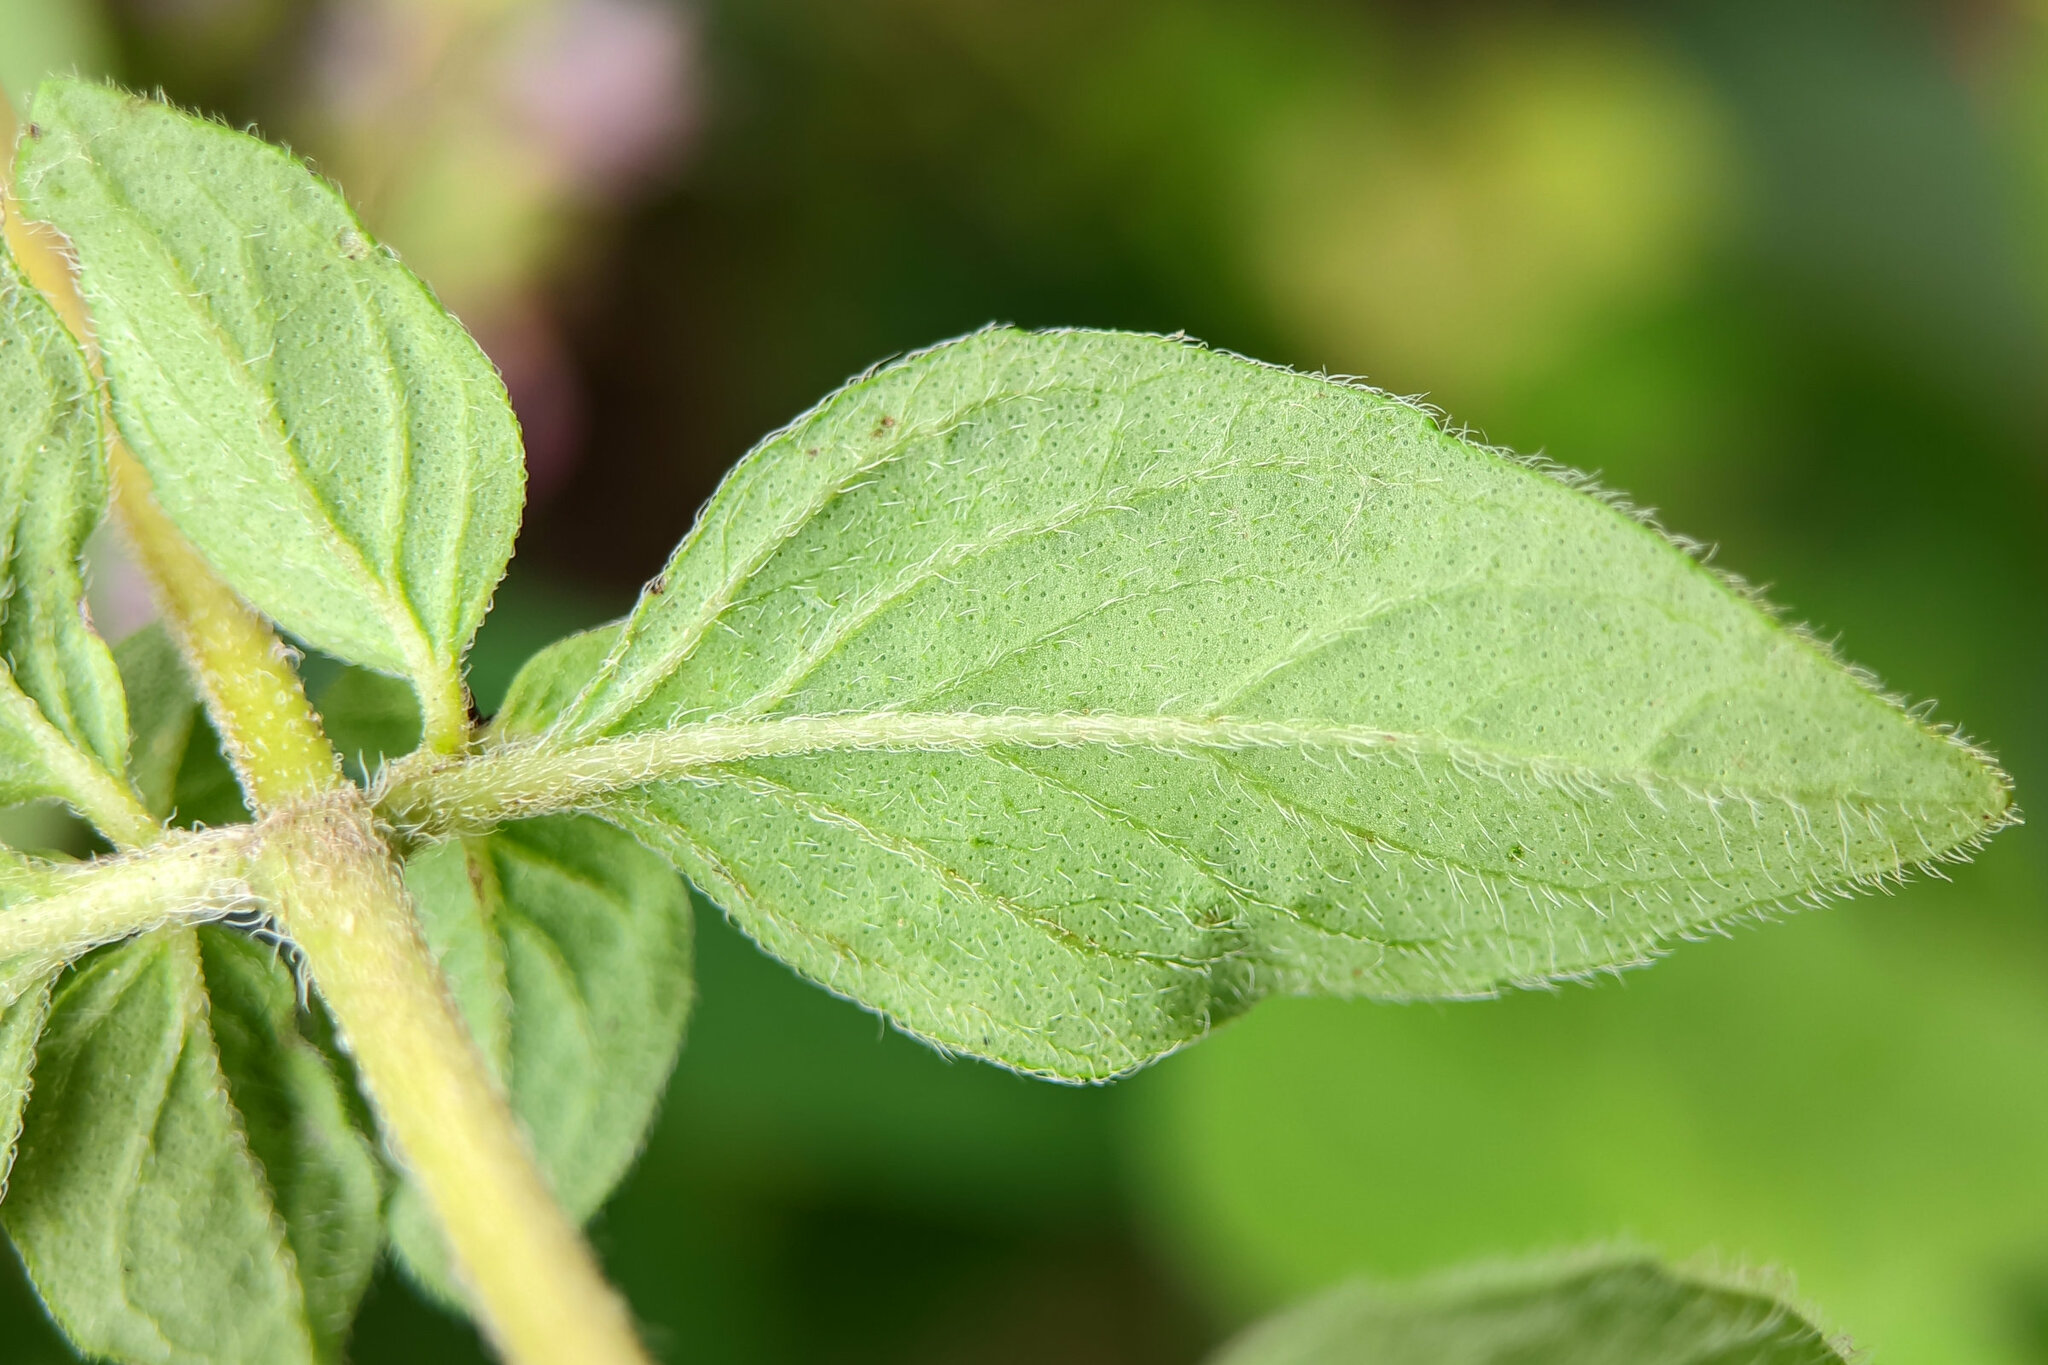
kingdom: Plantae
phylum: Tracheophyta
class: Magnoliopsida
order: Lamiales
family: Lamiaceae
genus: Origanum
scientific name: Origanum vulgare
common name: Wild marjoram
